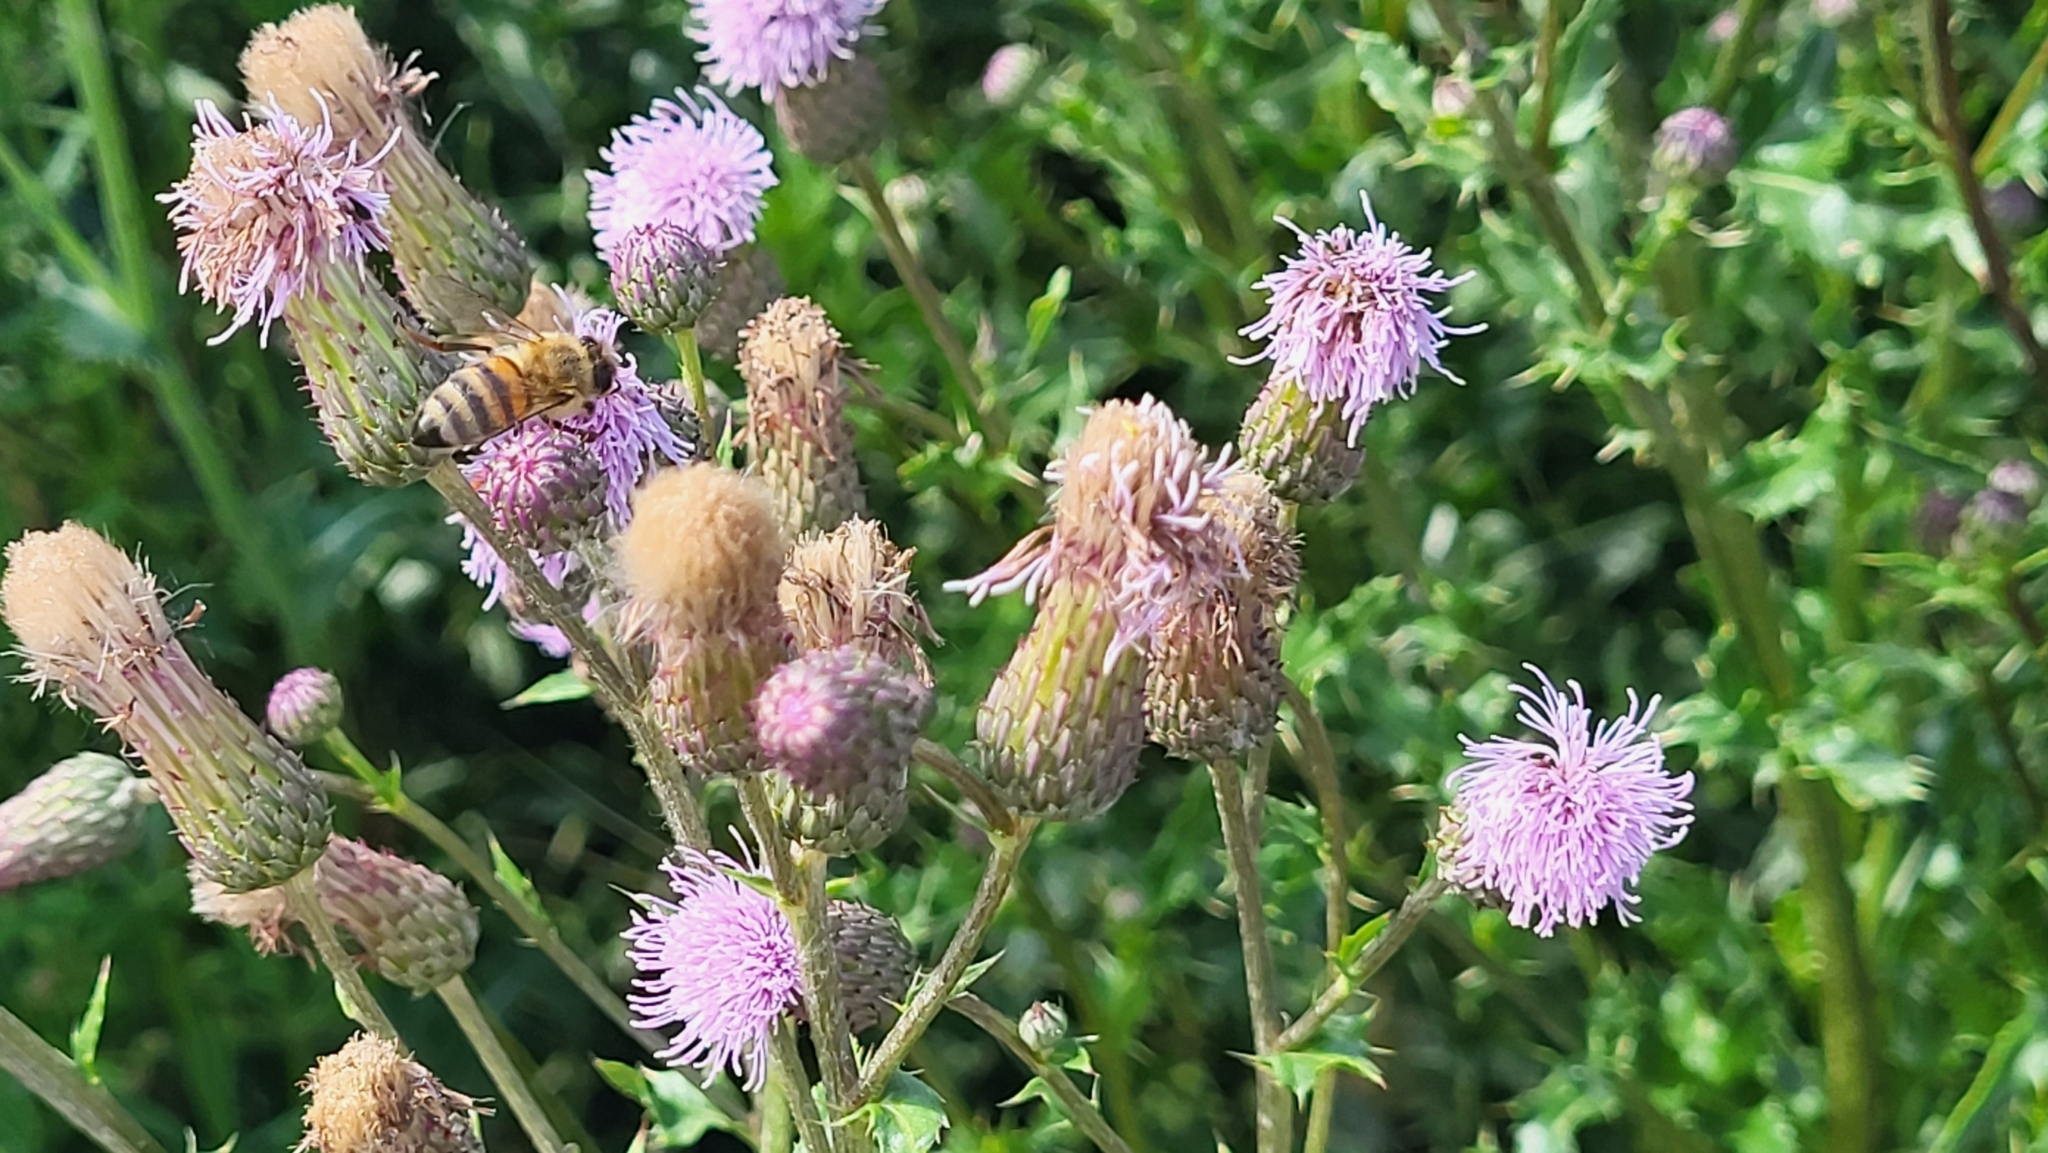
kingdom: Animalia
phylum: Arthropoda
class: Insecta
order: Hymenoptera
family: Apidae
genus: Apis
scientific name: Apis mellifera
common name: Honey bee
